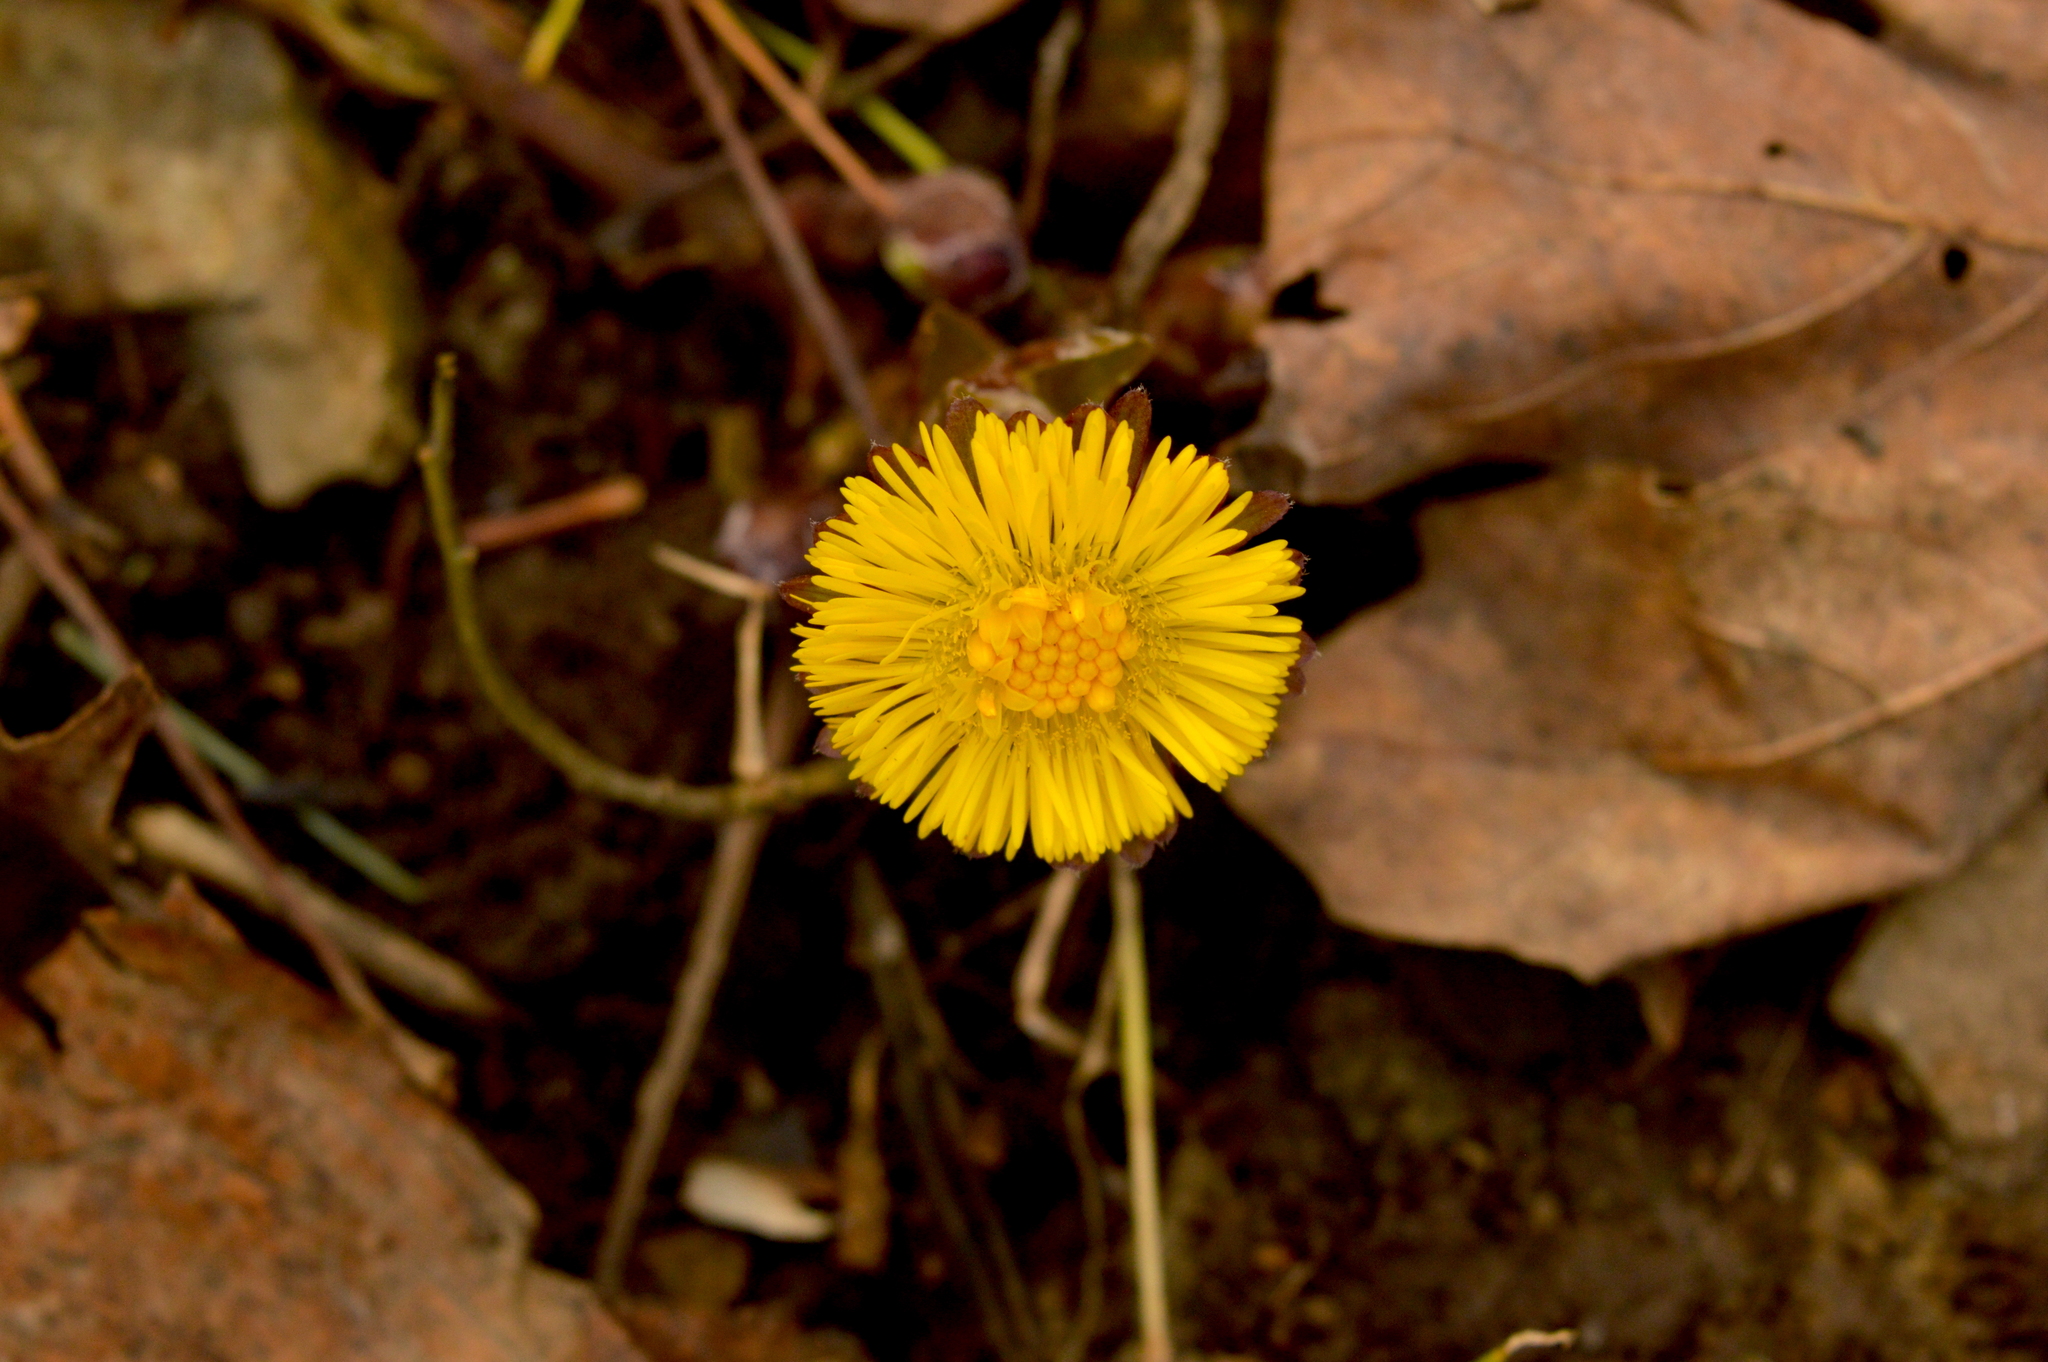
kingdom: Plantae
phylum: Tracheophyta
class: Magnoliopsida
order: Asterales
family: Asteraceae
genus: Tussilago
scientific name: Tussilago farfara
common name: Coltsfoot
